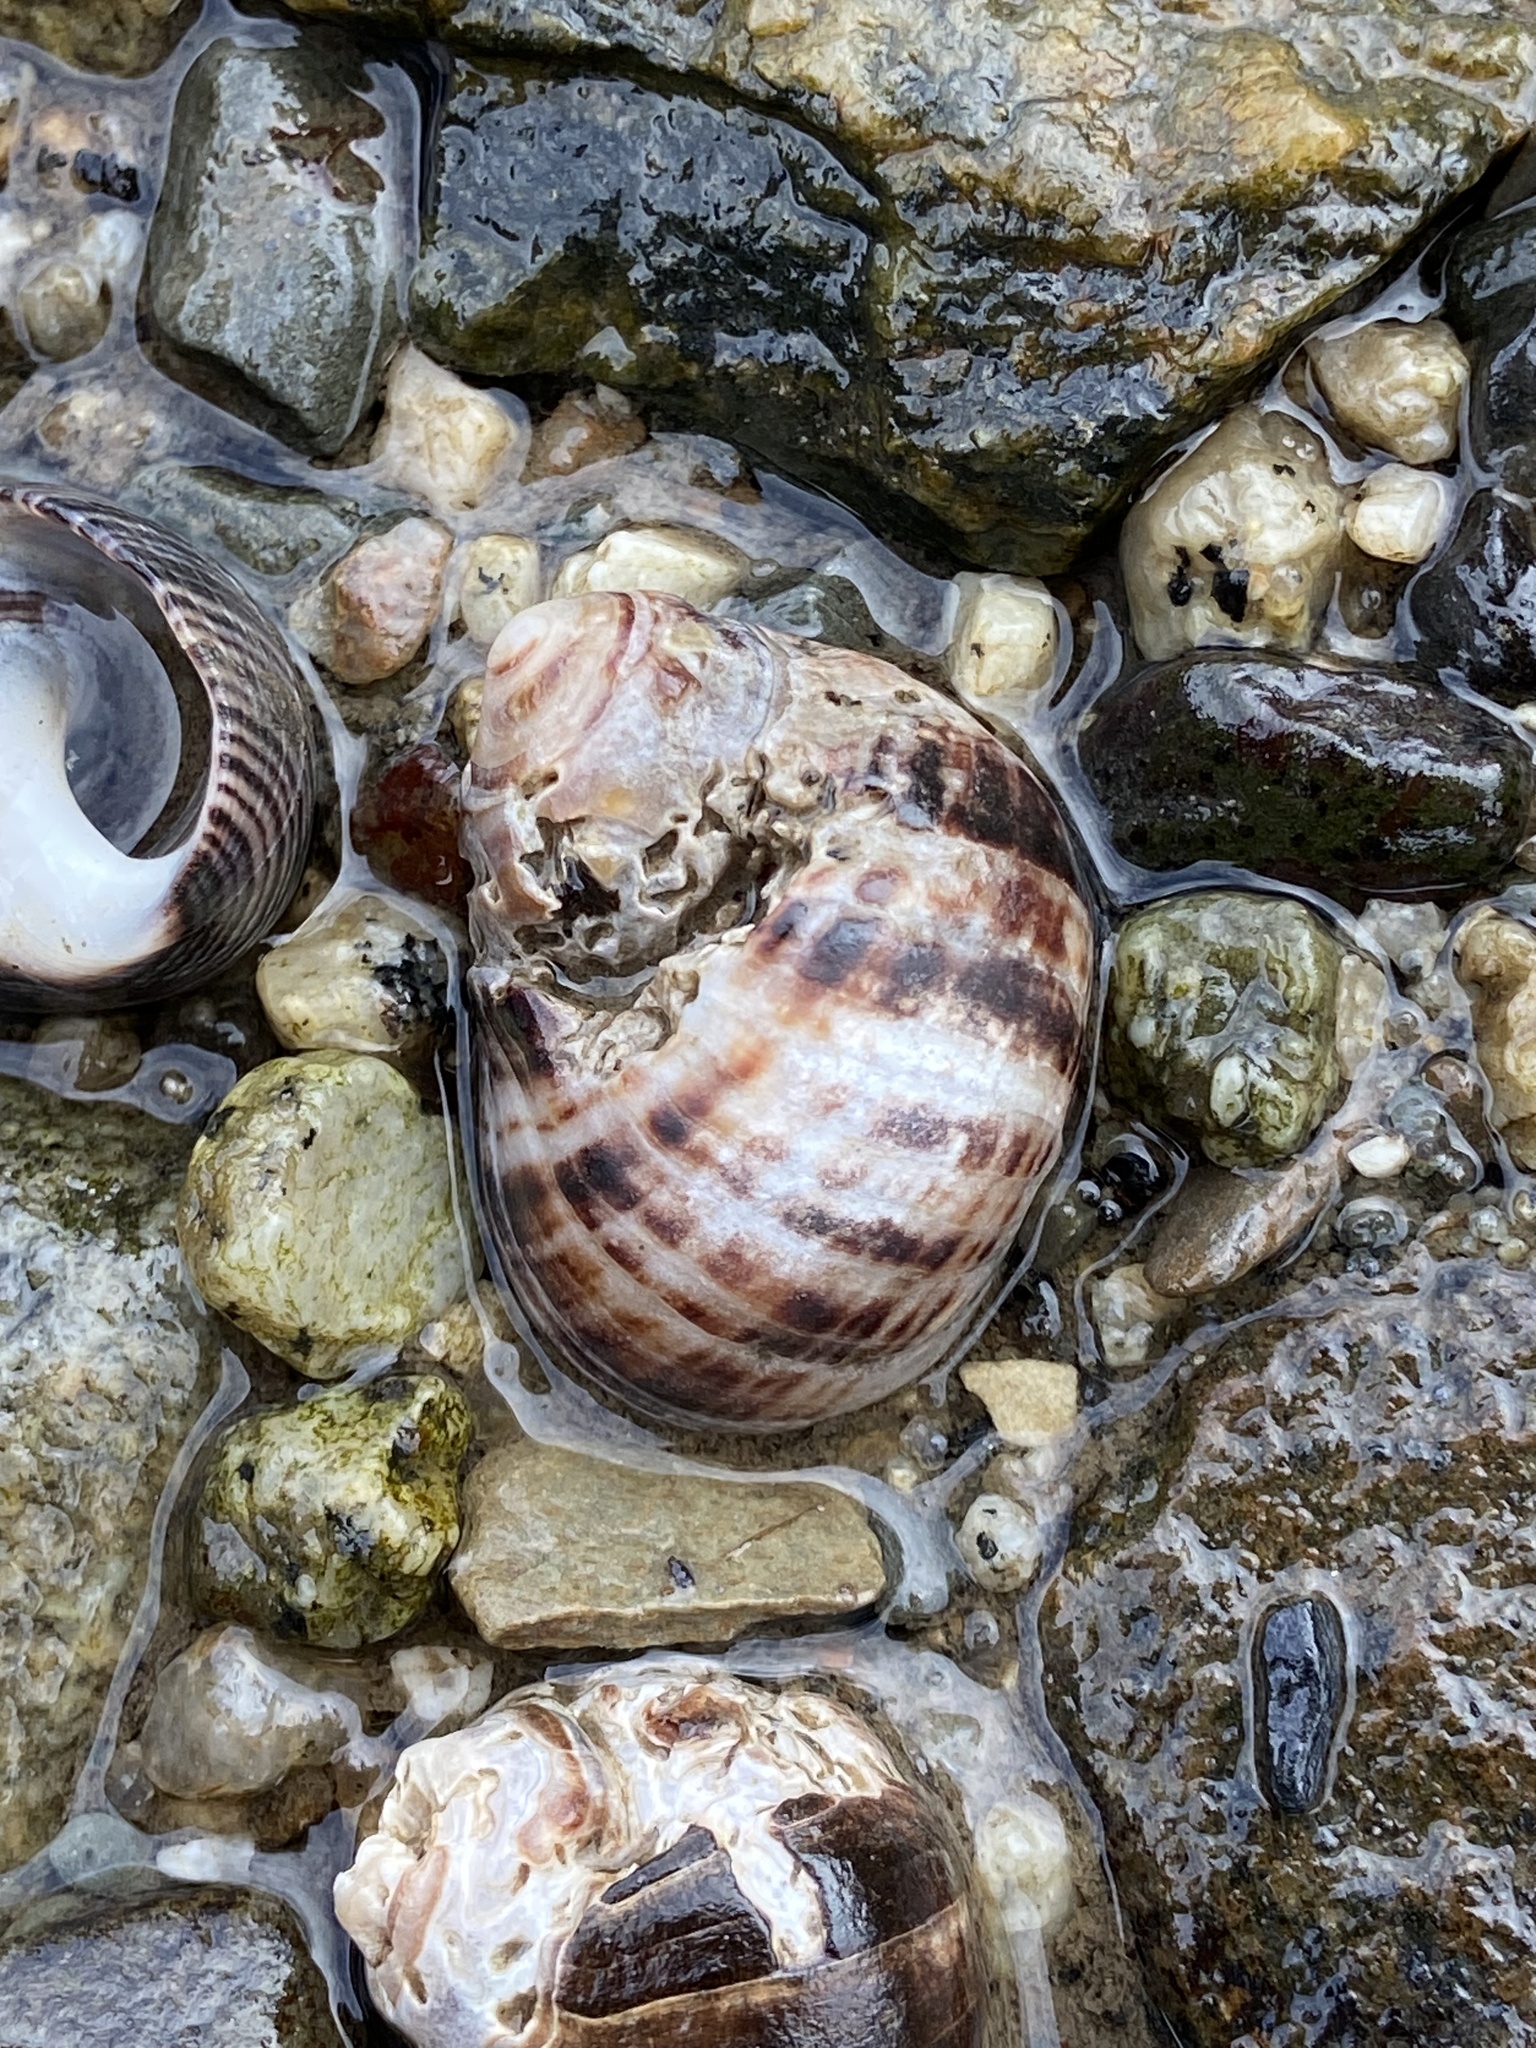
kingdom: Animalia
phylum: Mollusca
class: Gastropoda
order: Littorinimorpha
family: Littorinidae
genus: Littorina
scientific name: Littorina littorea
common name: Common periwinkle
